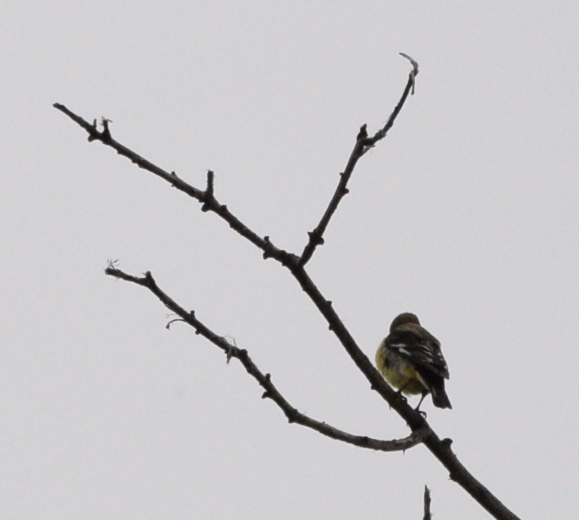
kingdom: Animalia
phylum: Chordata
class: Aves
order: Passeriformes
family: Fringillidae
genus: Spinus
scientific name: Spinus psaltria
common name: Lesser goldfinch
